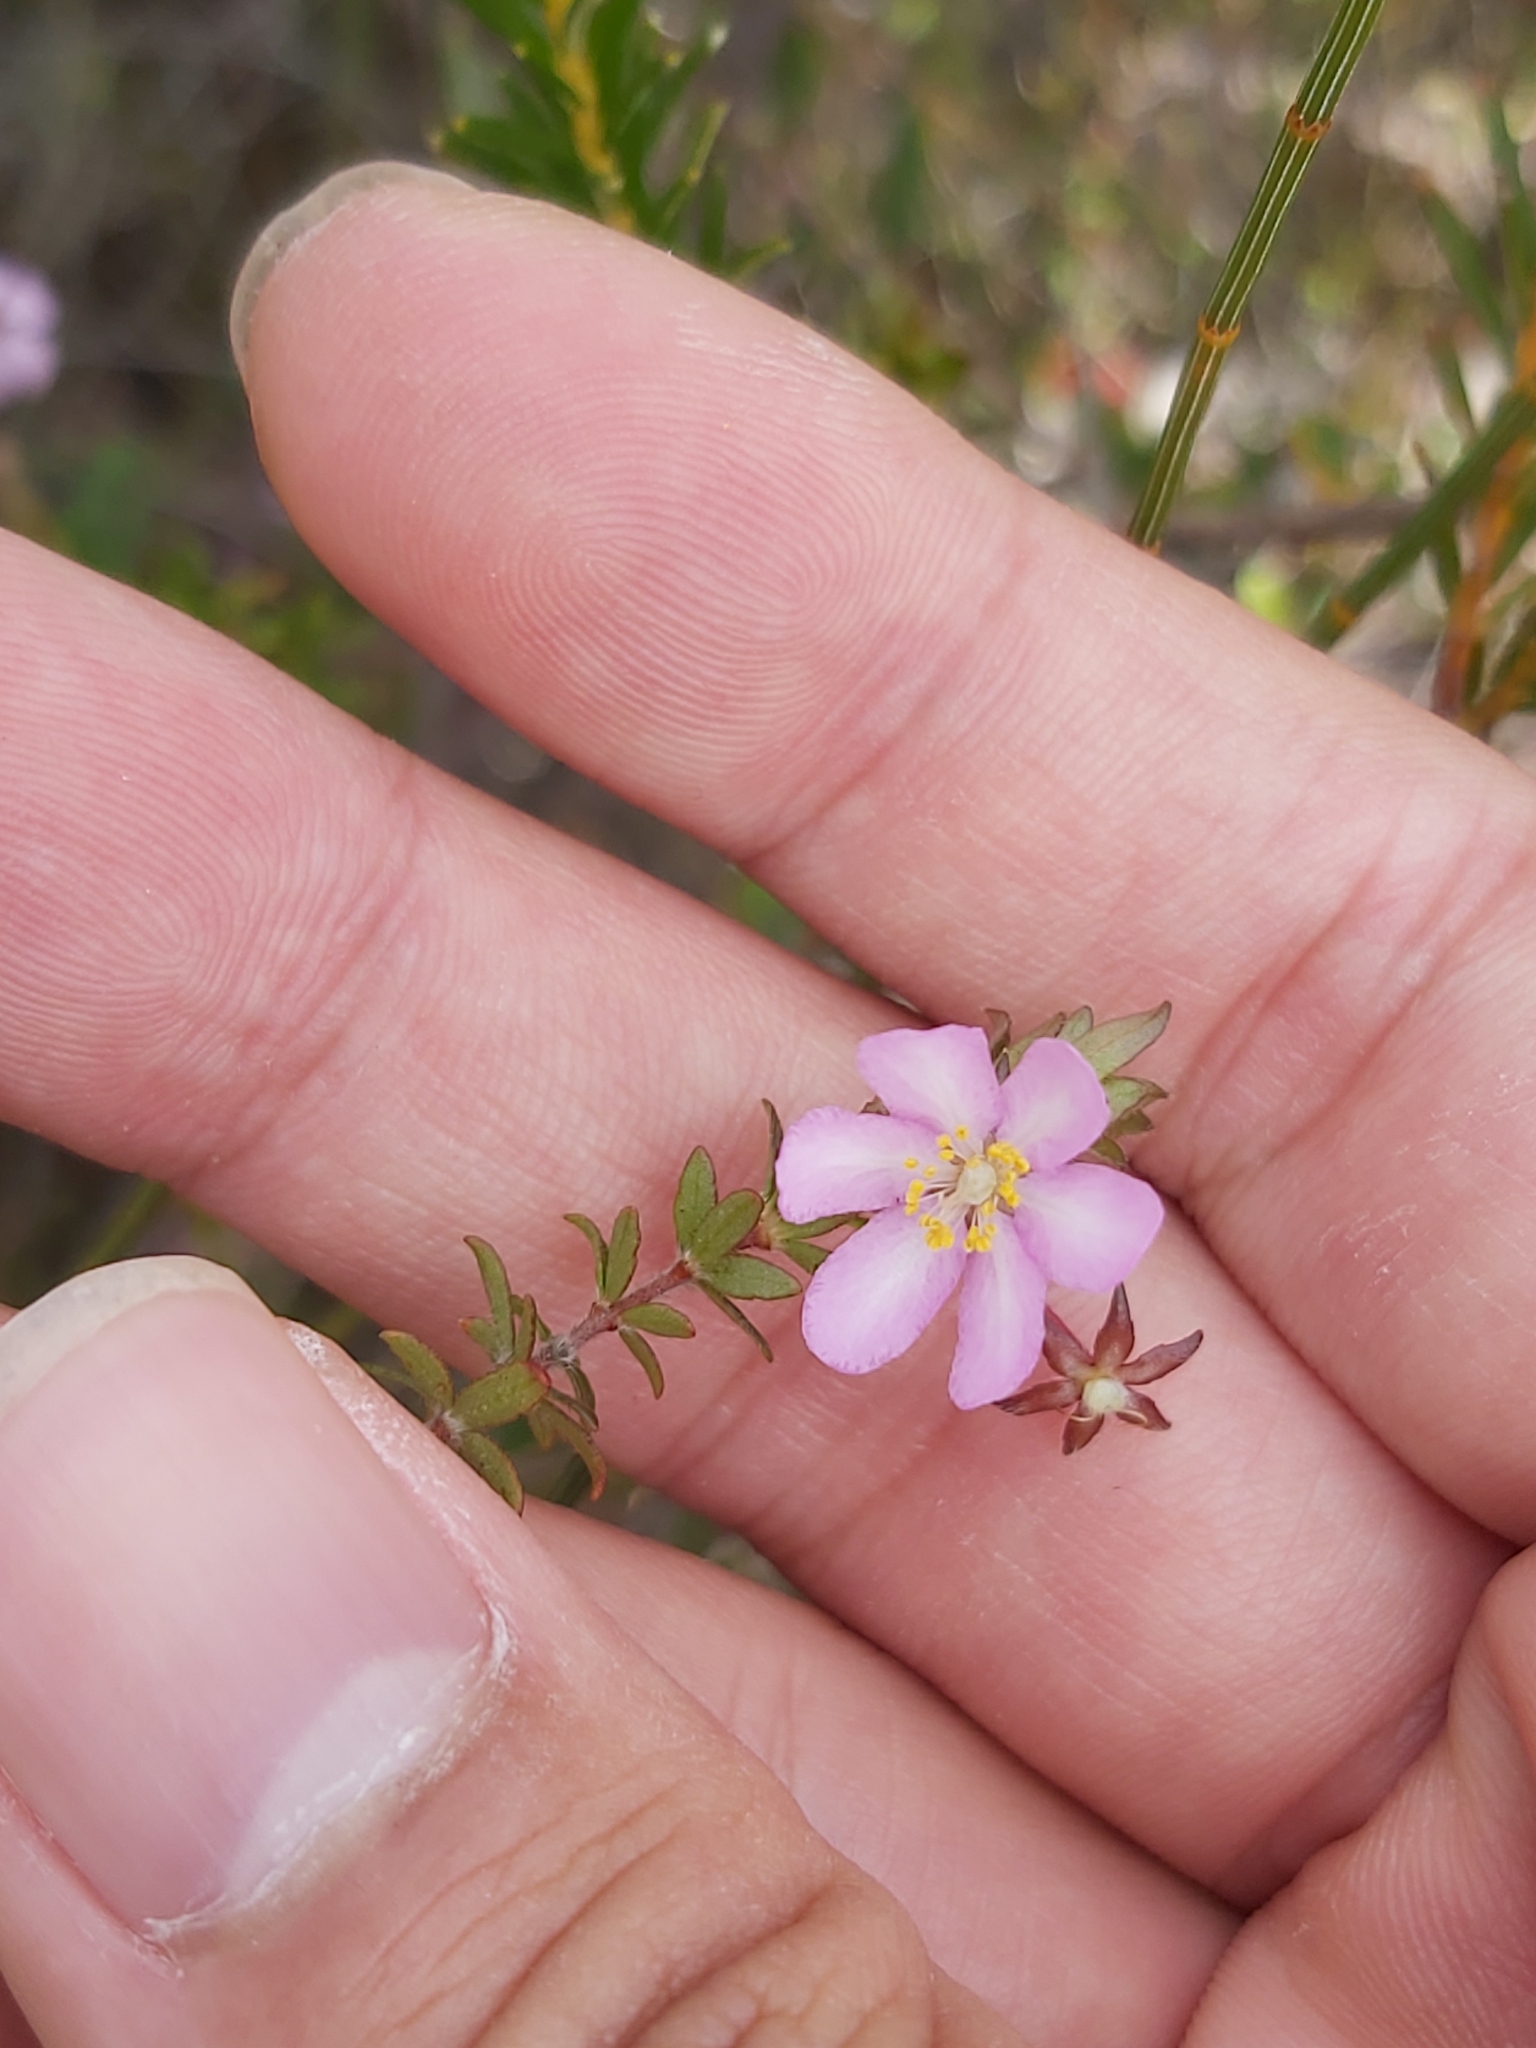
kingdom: Plantae
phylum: Tracheophyta
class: Magnoliopsida
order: Oxalidales
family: Cunoniaceae
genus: Bauera
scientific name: Bauera rubioides
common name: River-rose
